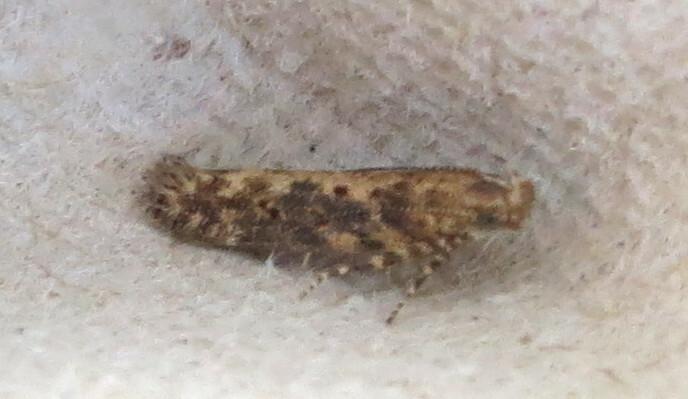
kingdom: Animalia
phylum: Arthropoda
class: Insecta
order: Lepidoptera
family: Gelechiidae
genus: Scrobipalpa
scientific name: Scrobipalpa ocellatella
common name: Beet moth
